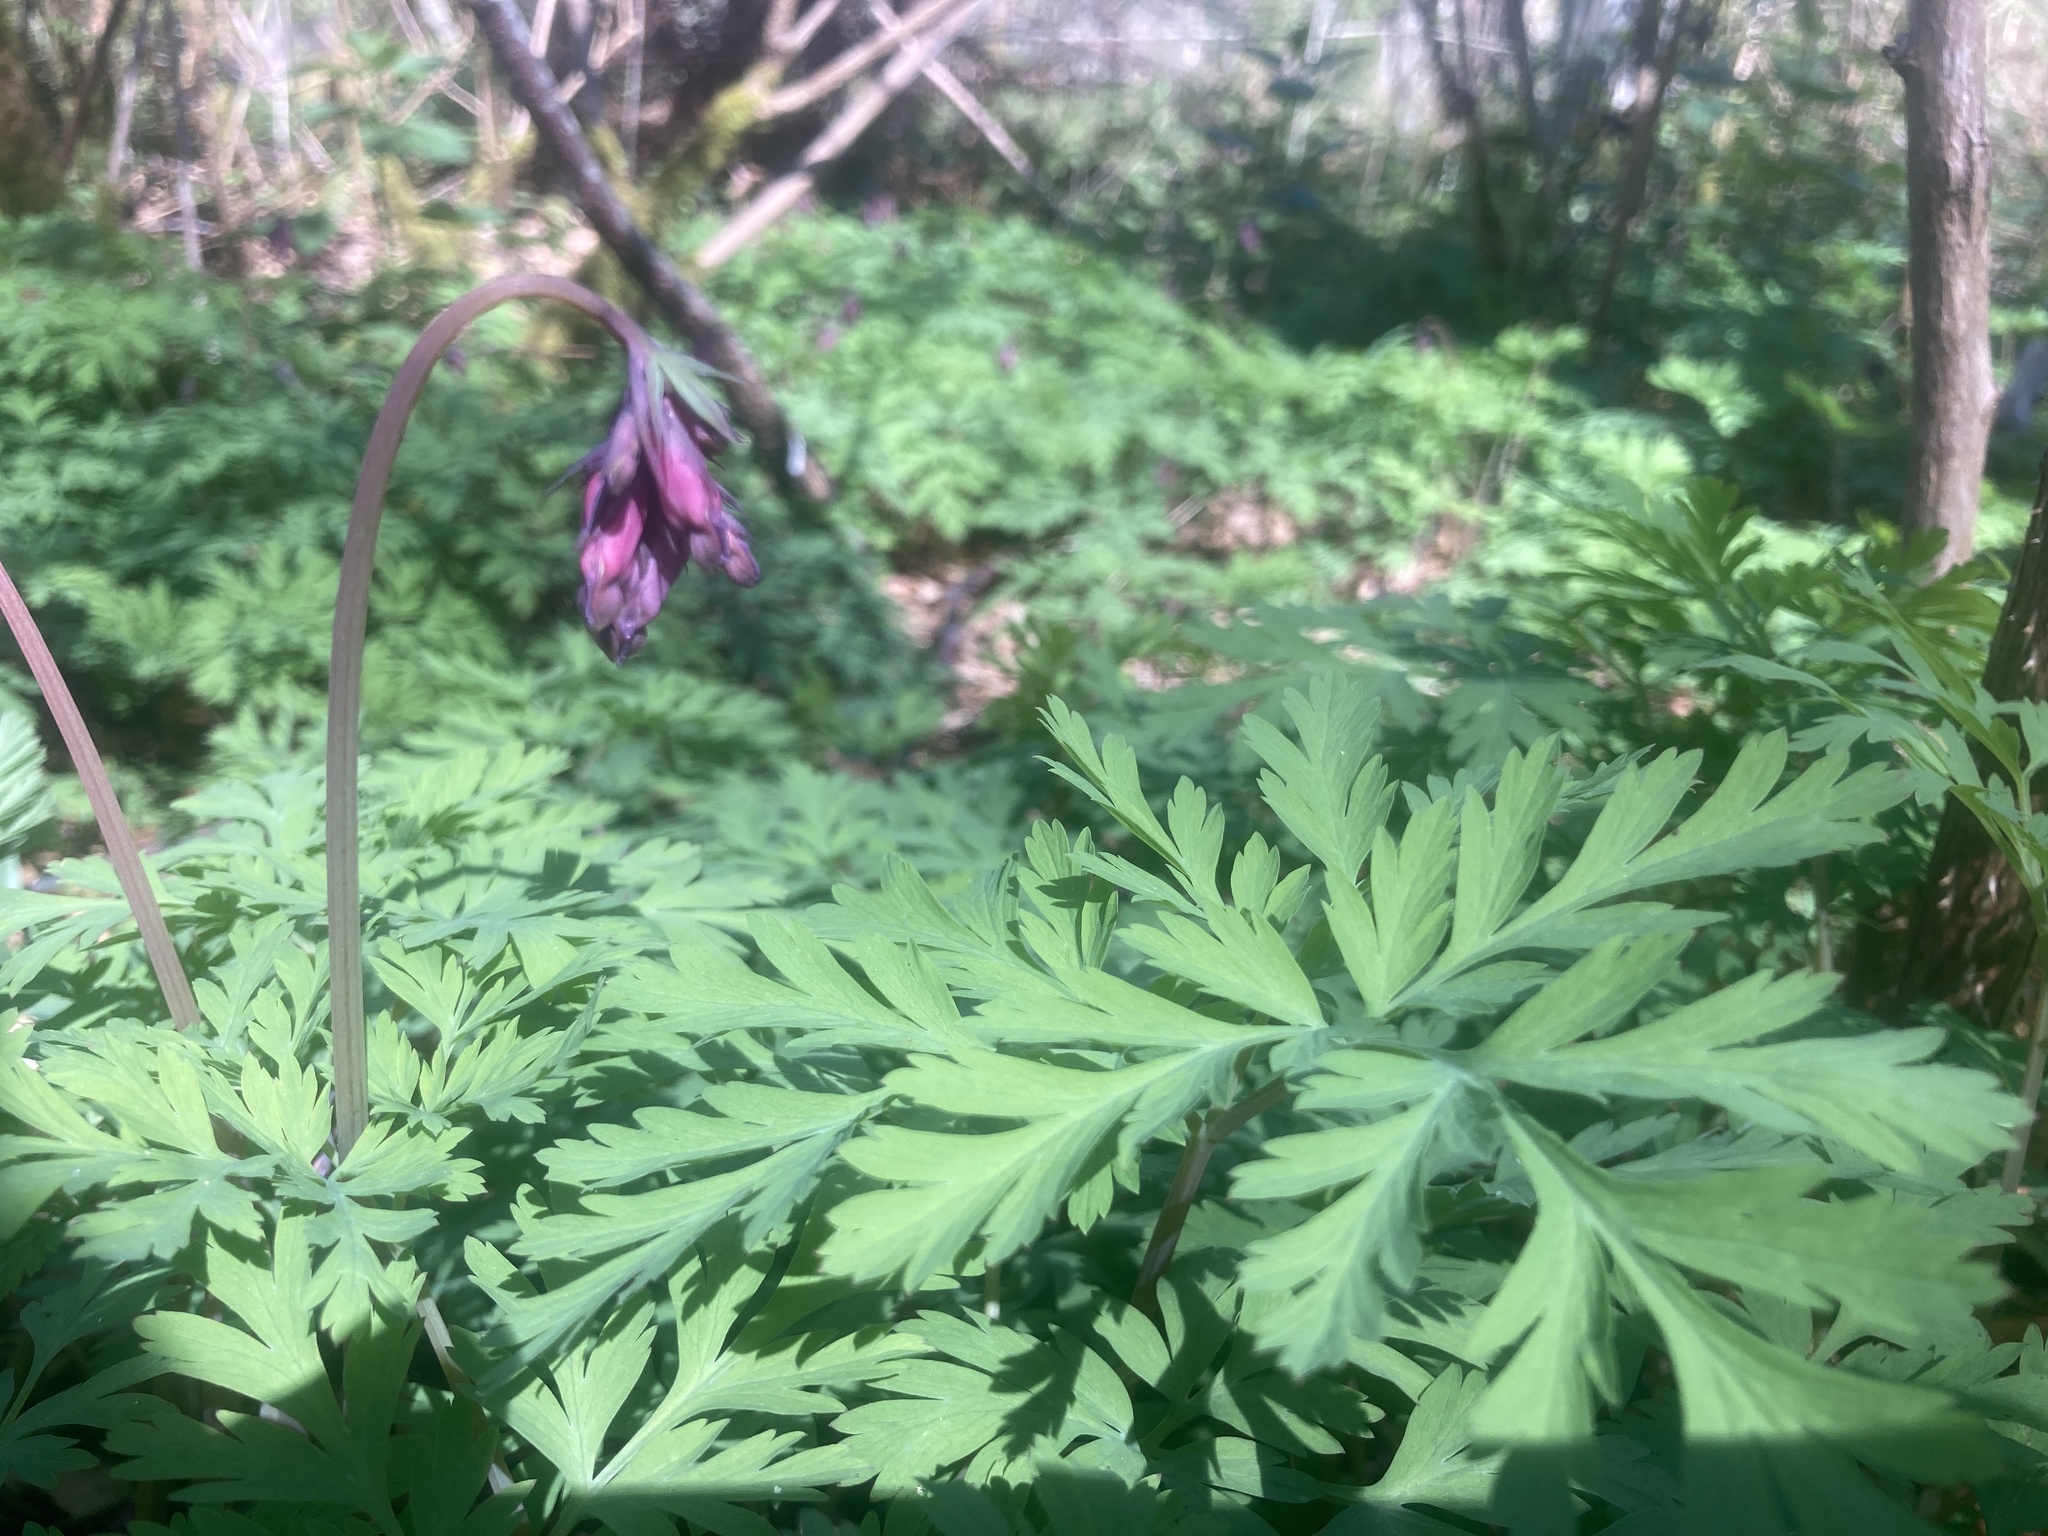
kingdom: Plantae
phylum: Tracheophyta
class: Magnoliopsida
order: Ranunculales
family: Papaveraceae
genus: Dicentra
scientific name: Dicentra formosa
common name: Bleeding-heart
